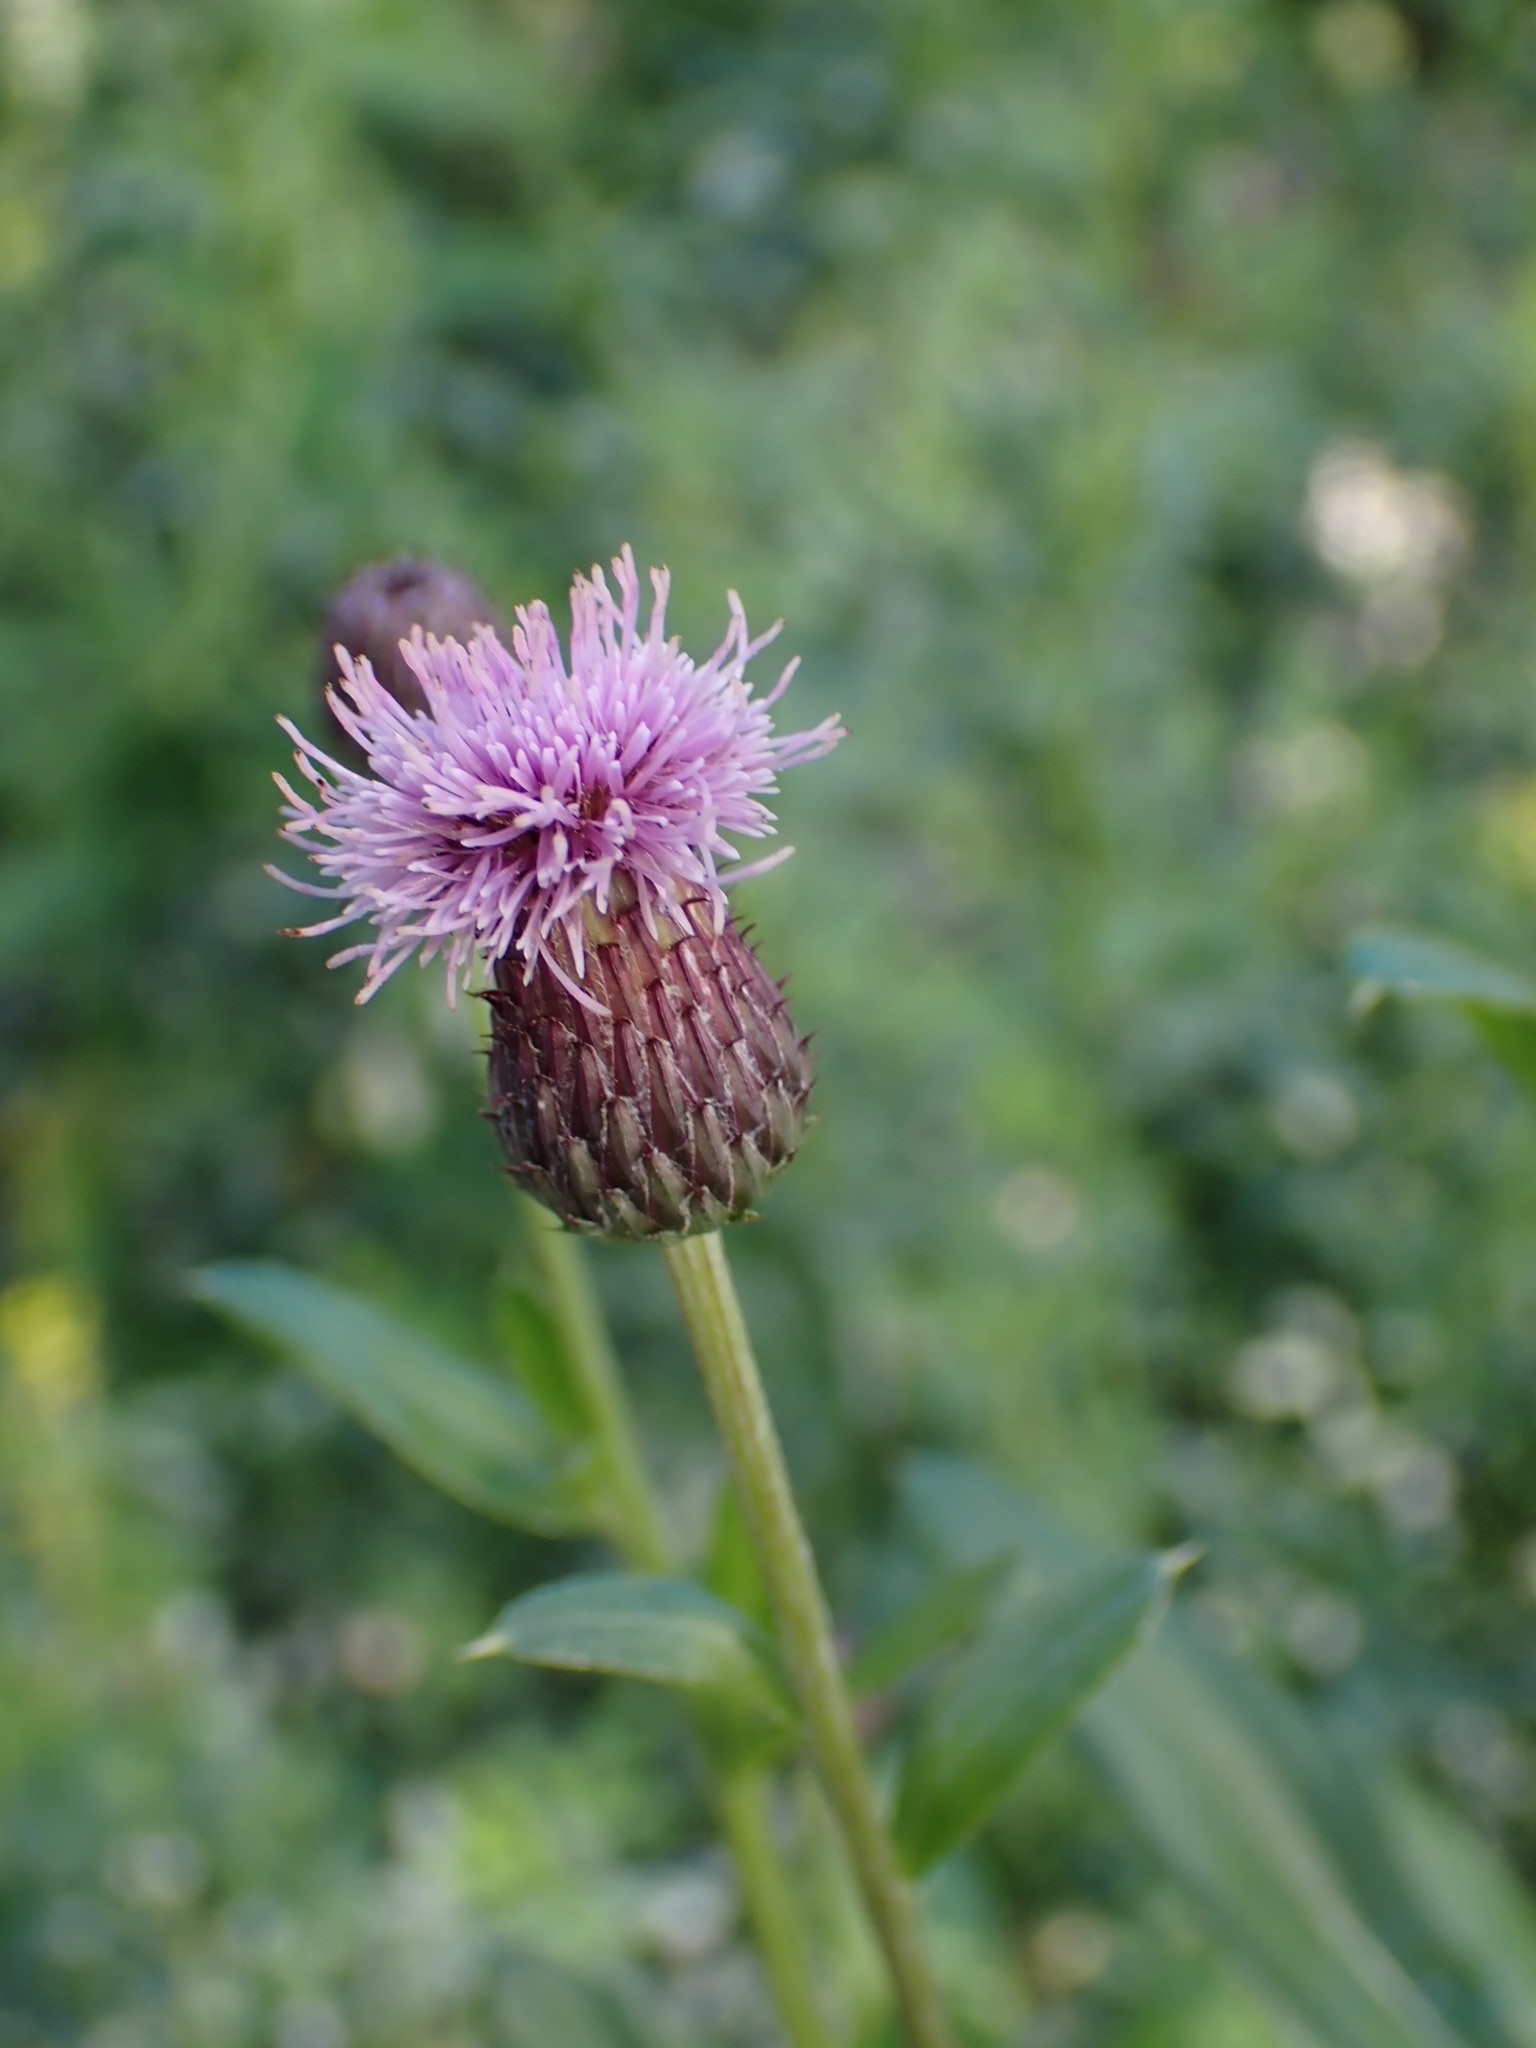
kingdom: Plantae
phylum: Tracheophyta
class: Magnoliopsida
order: Asterales
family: Asteraceae
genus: Cirsium
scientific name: Cirsium arvense
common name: Creeping thistle
